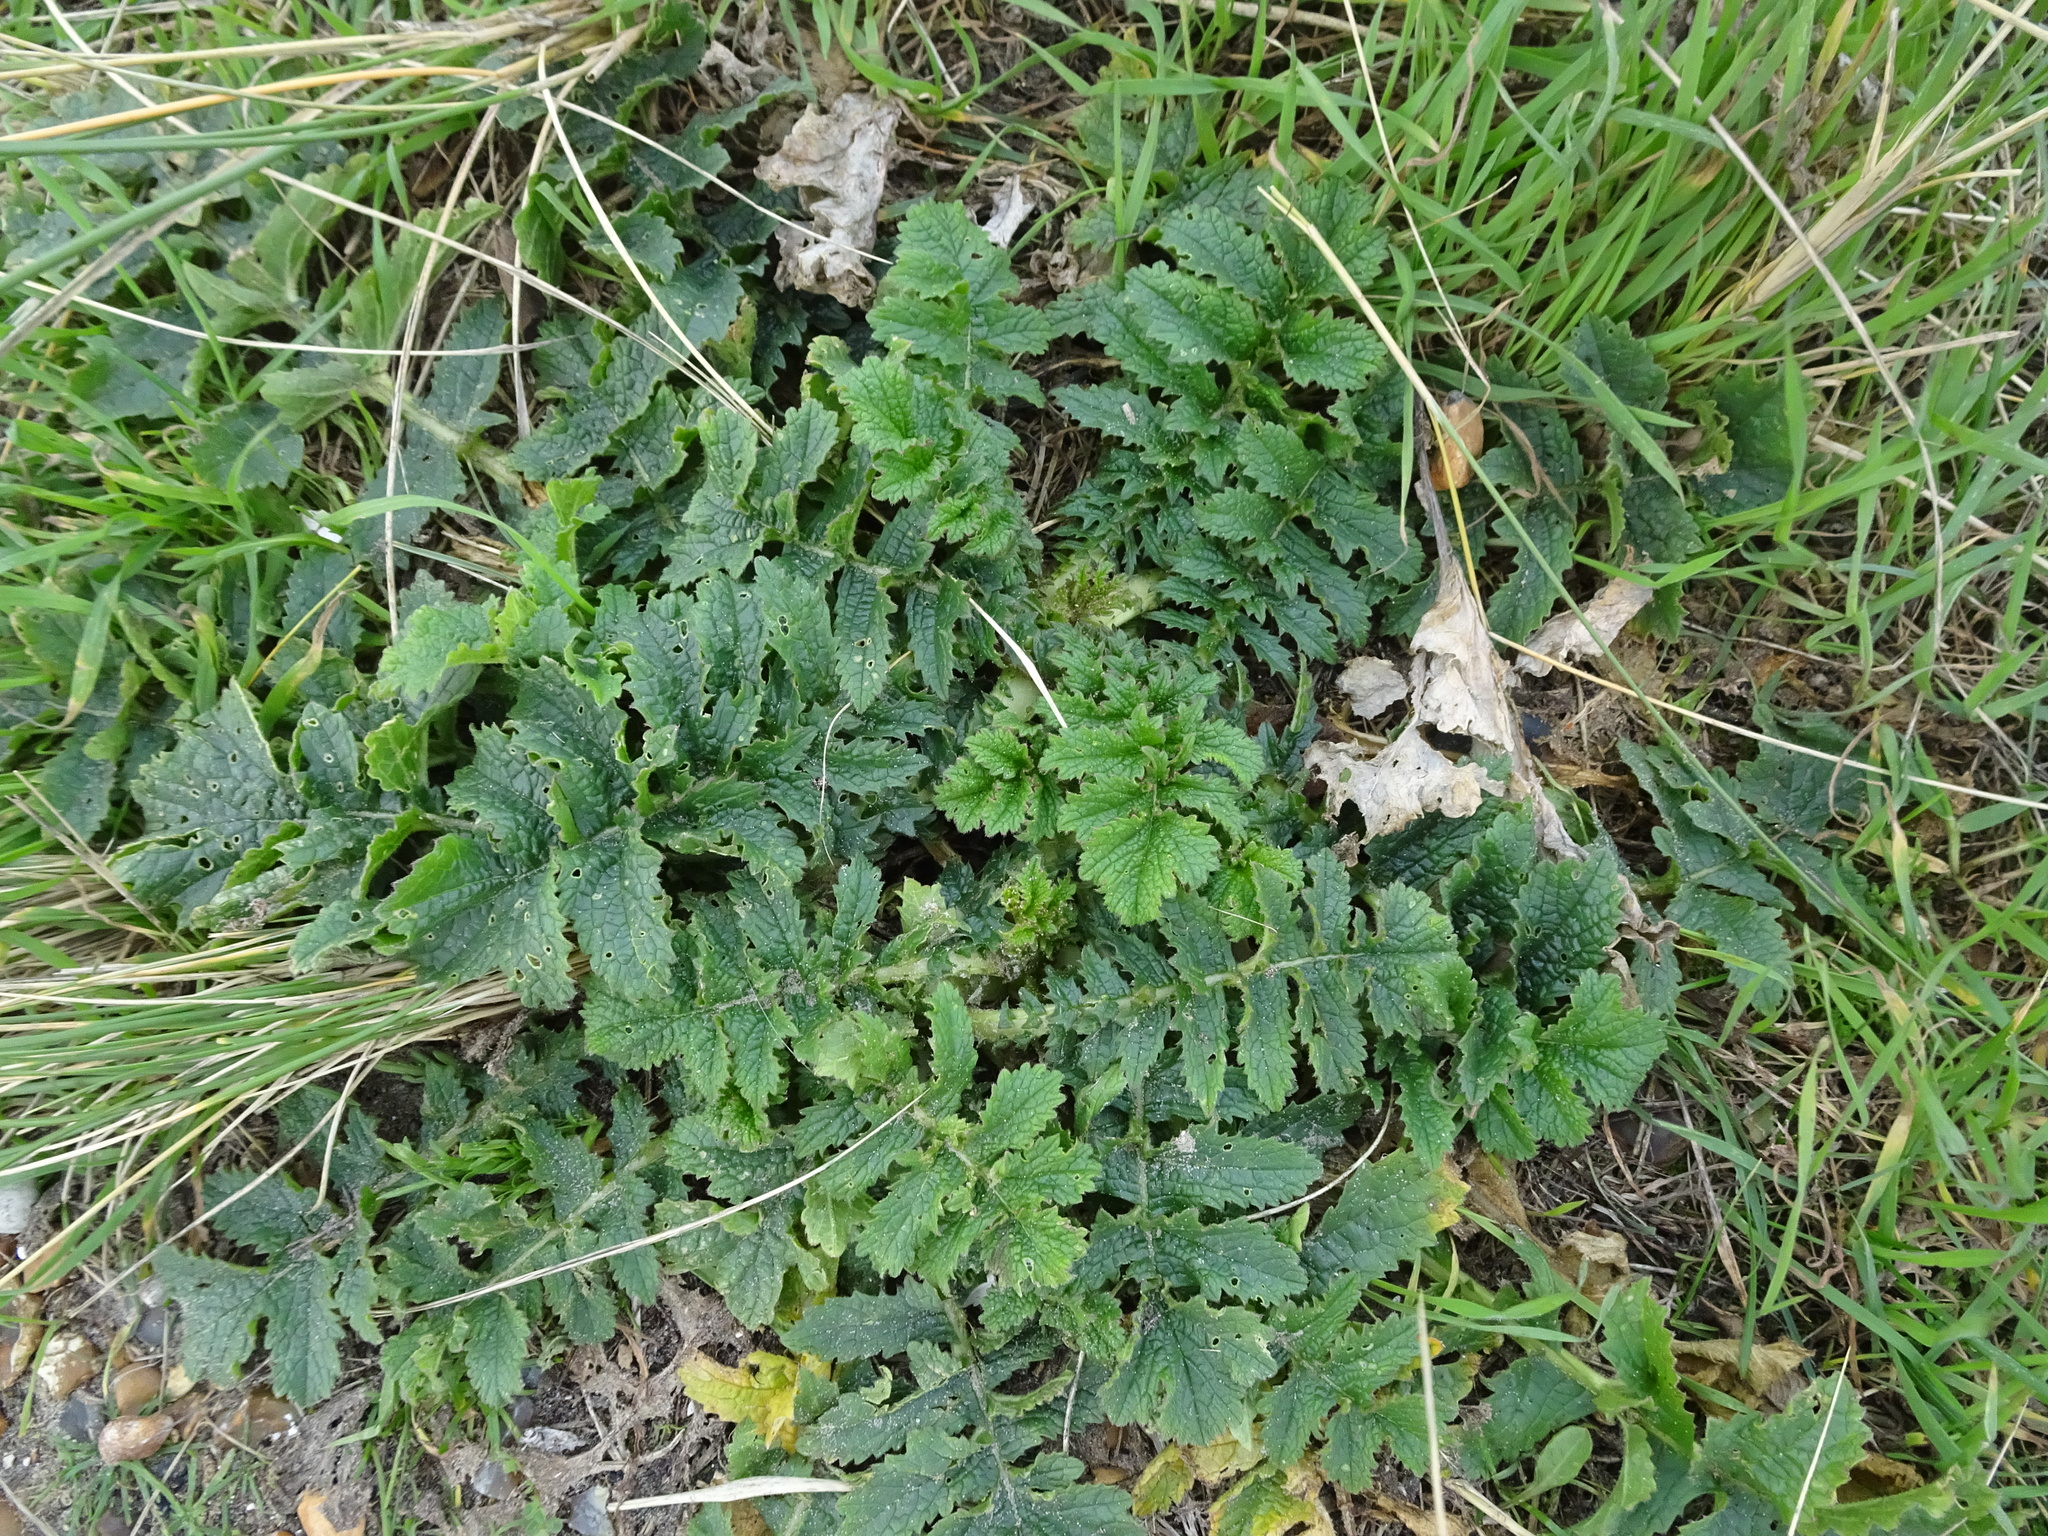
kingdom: Plantae
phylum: Tracheophyta
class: Magnoliopsida
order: Brassicales
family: Brassicaceae
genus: Raphanus
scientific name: Raphanus raphanistrum
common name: Wild radish
